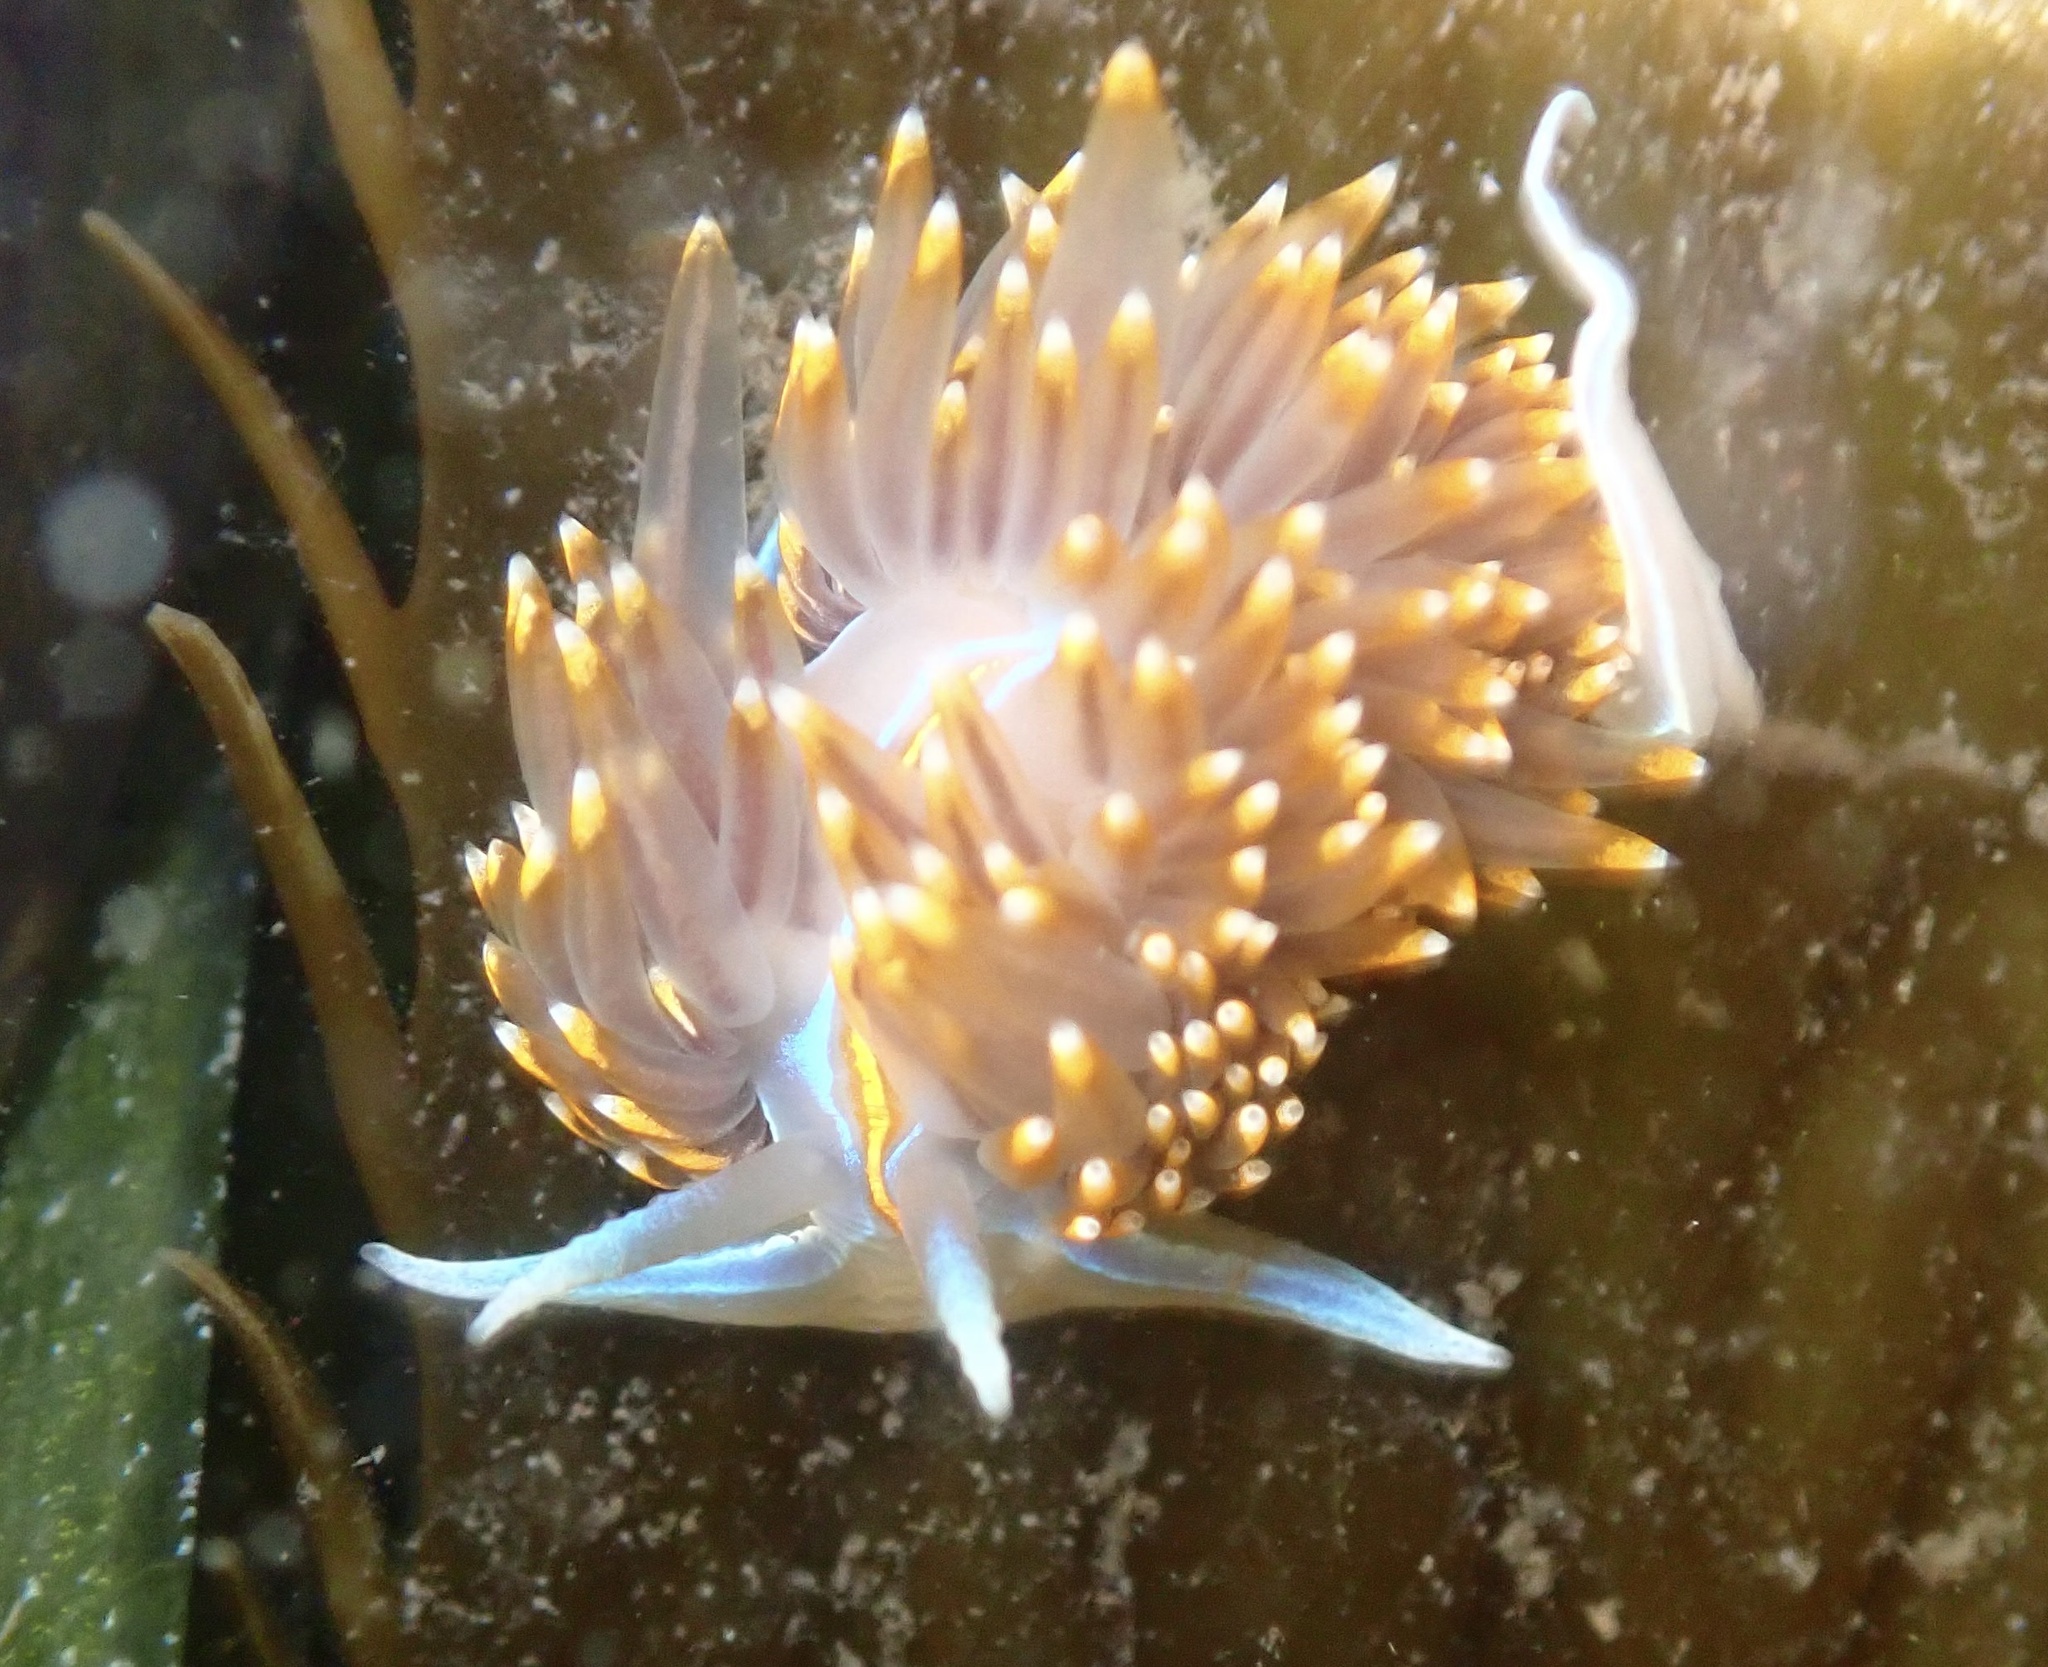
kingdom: Animalia
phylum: Mollusca
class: Gastropoda
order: Nudibranchia
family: Myrrhinidae
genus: Hermissenda
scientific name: Hermissenda opalescens
